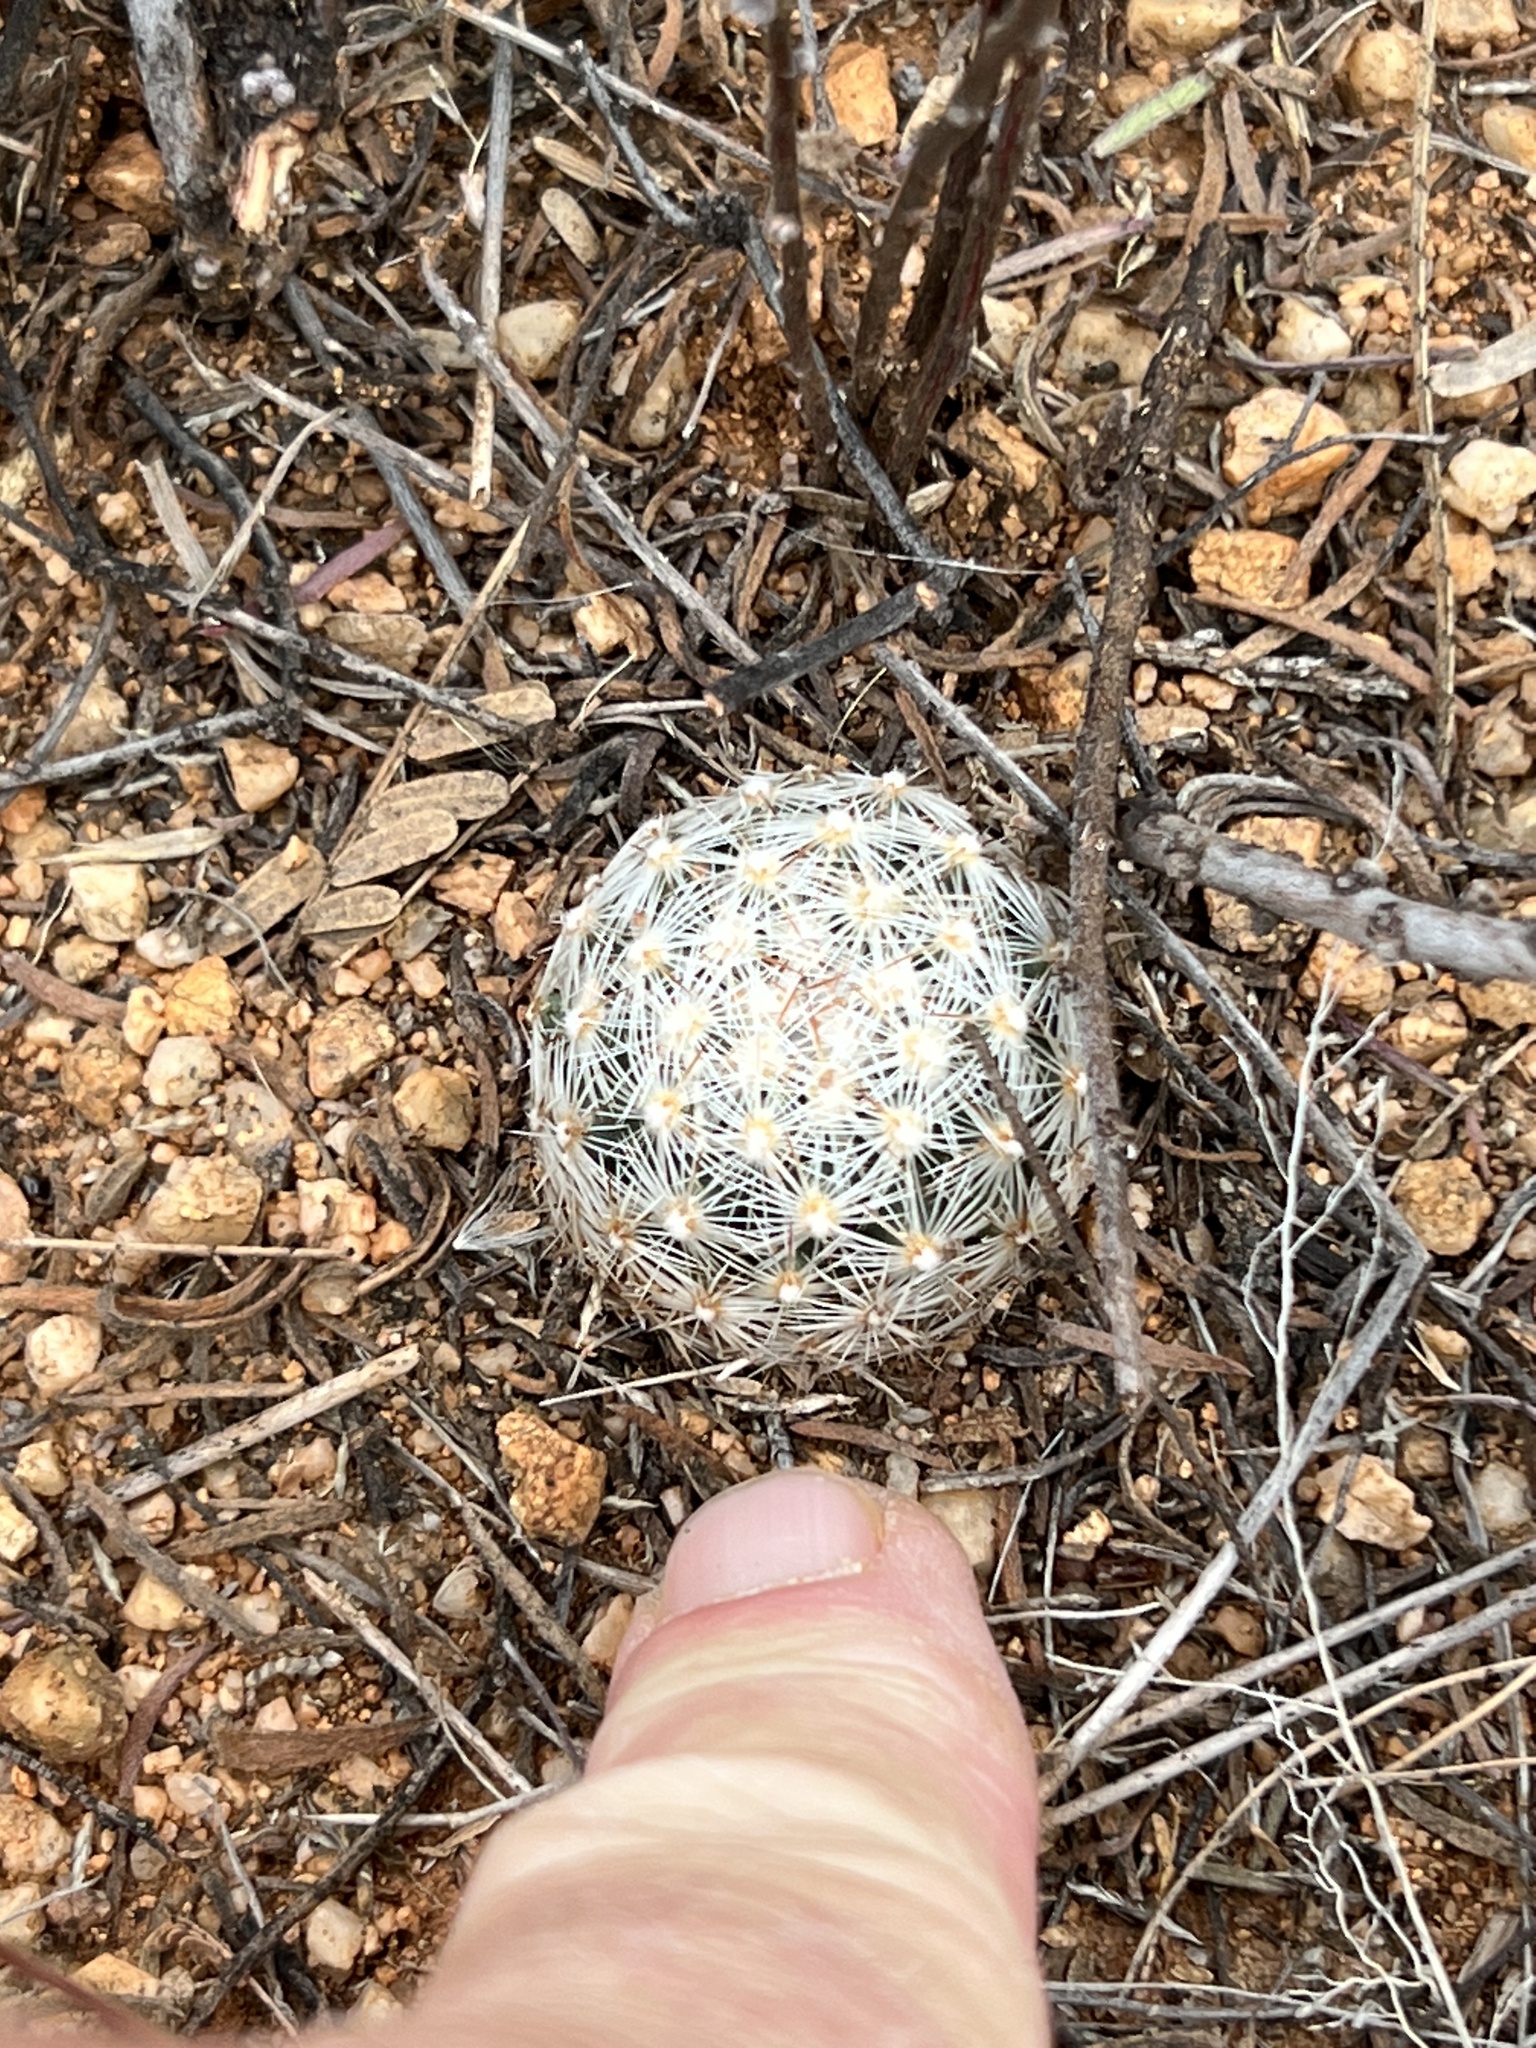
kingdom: Plantae
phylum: Tracheophyta
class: Magnoliopsida
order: Caryophyllales
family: Cactaceae
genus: Cochemiea
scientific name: Cochemiea grahamii
